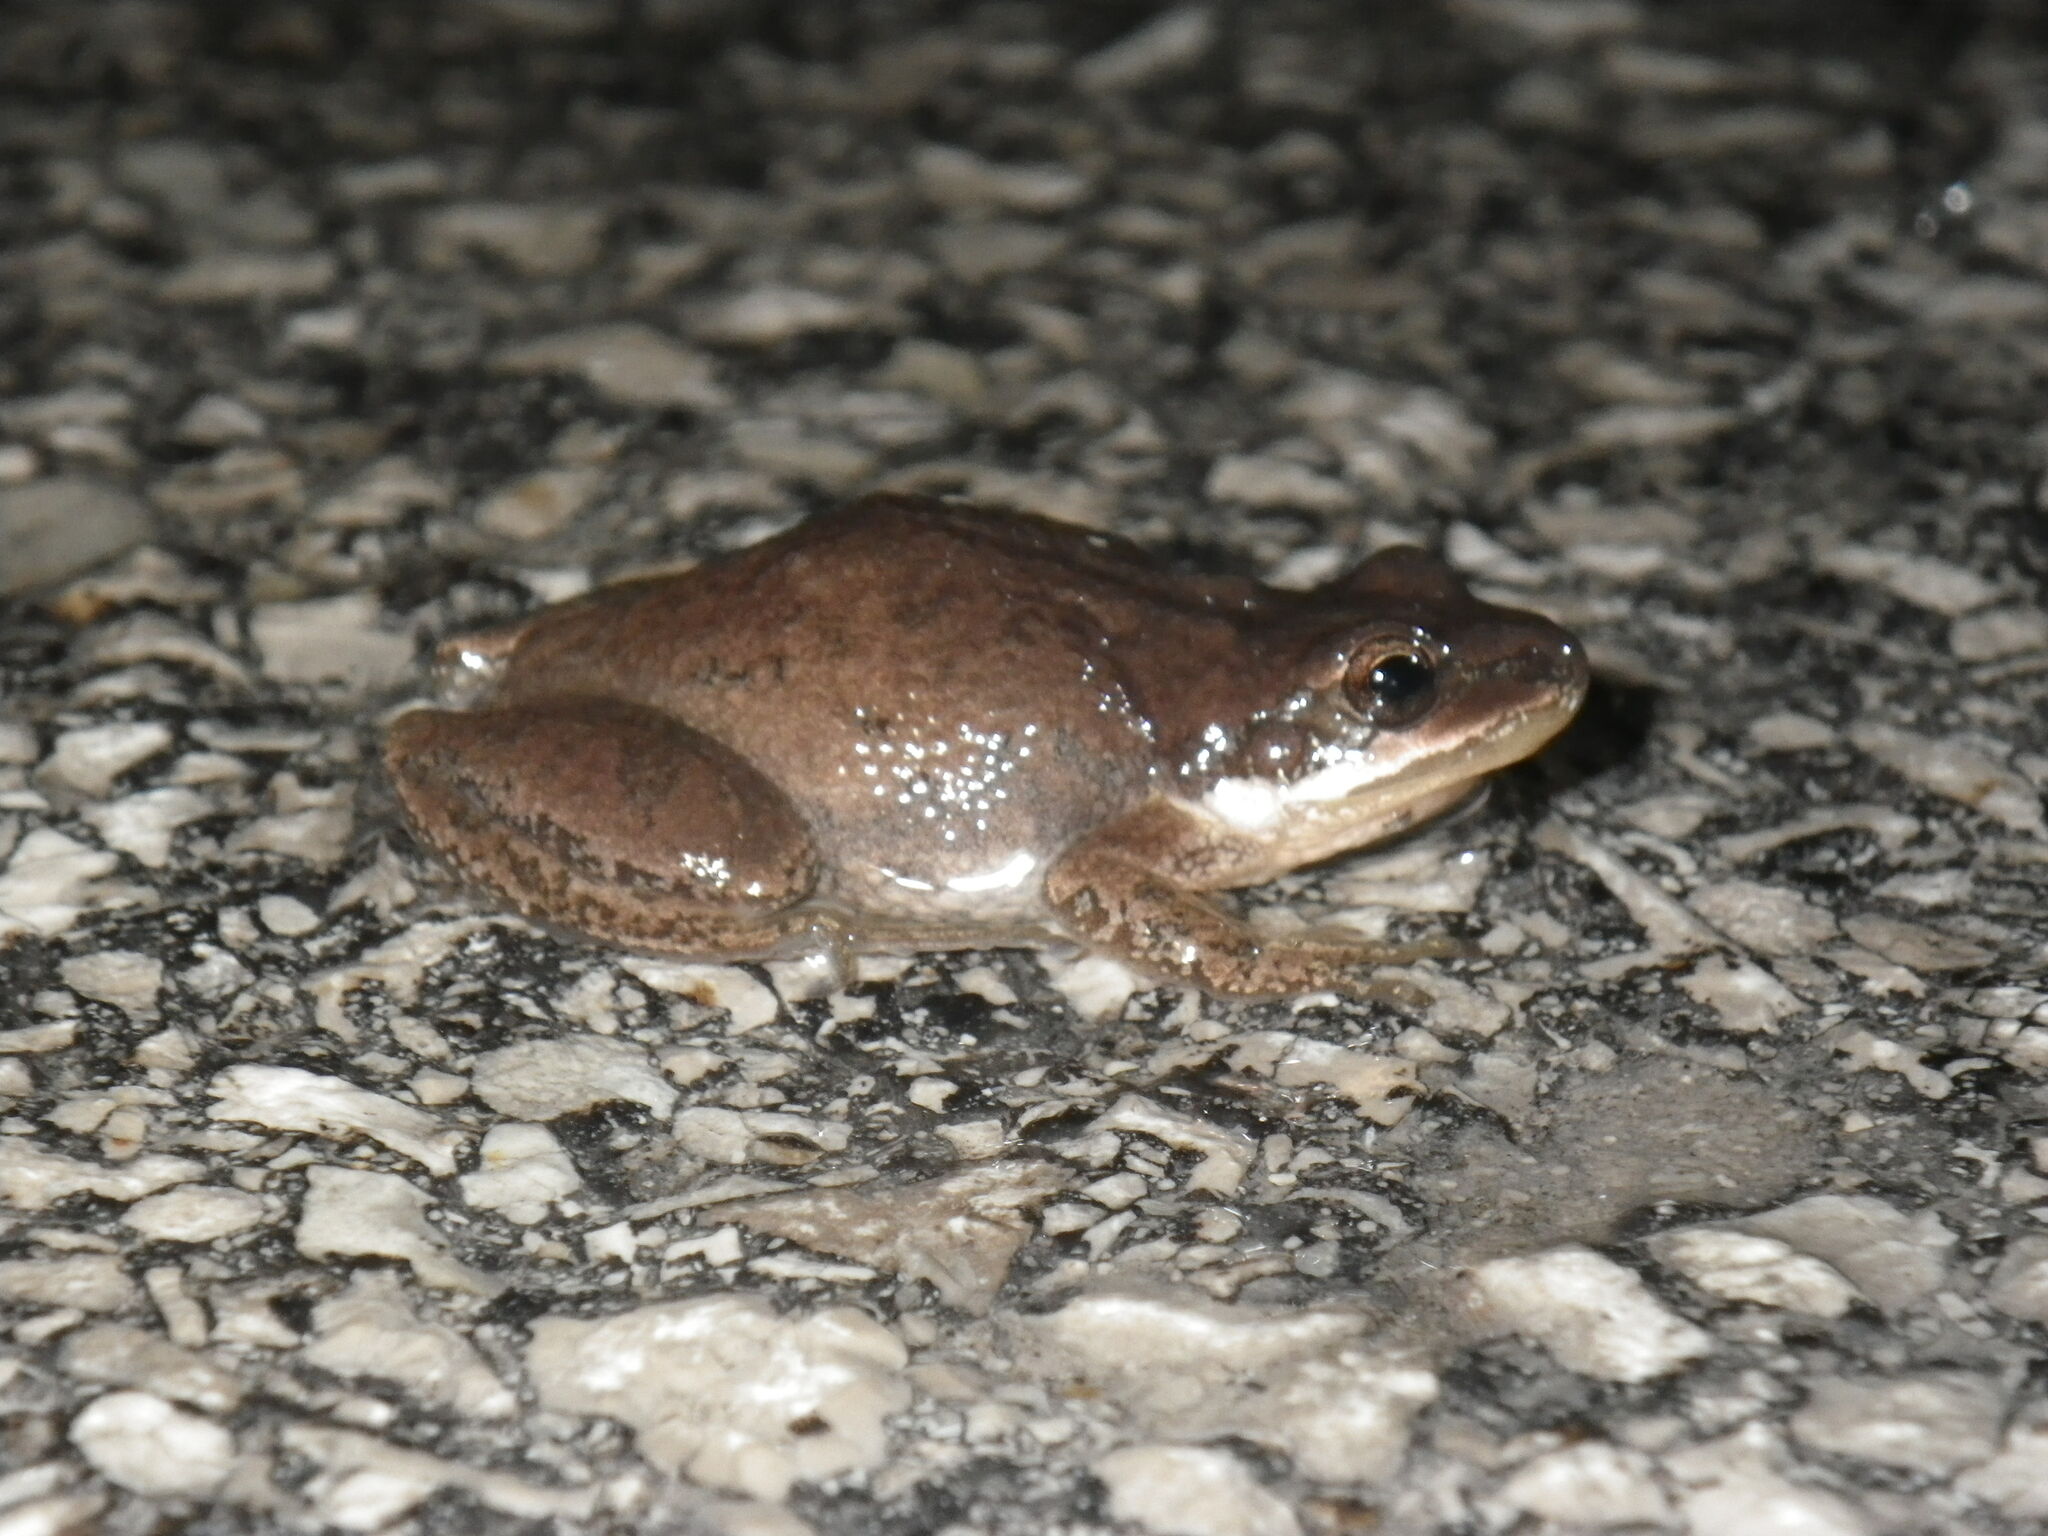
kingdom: Animalia
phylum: Chordata
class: Amphibia
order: Anura
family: Hylidae
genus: Pseudacris
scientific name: Pseudacris feriarum
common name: Upland chorus frog
